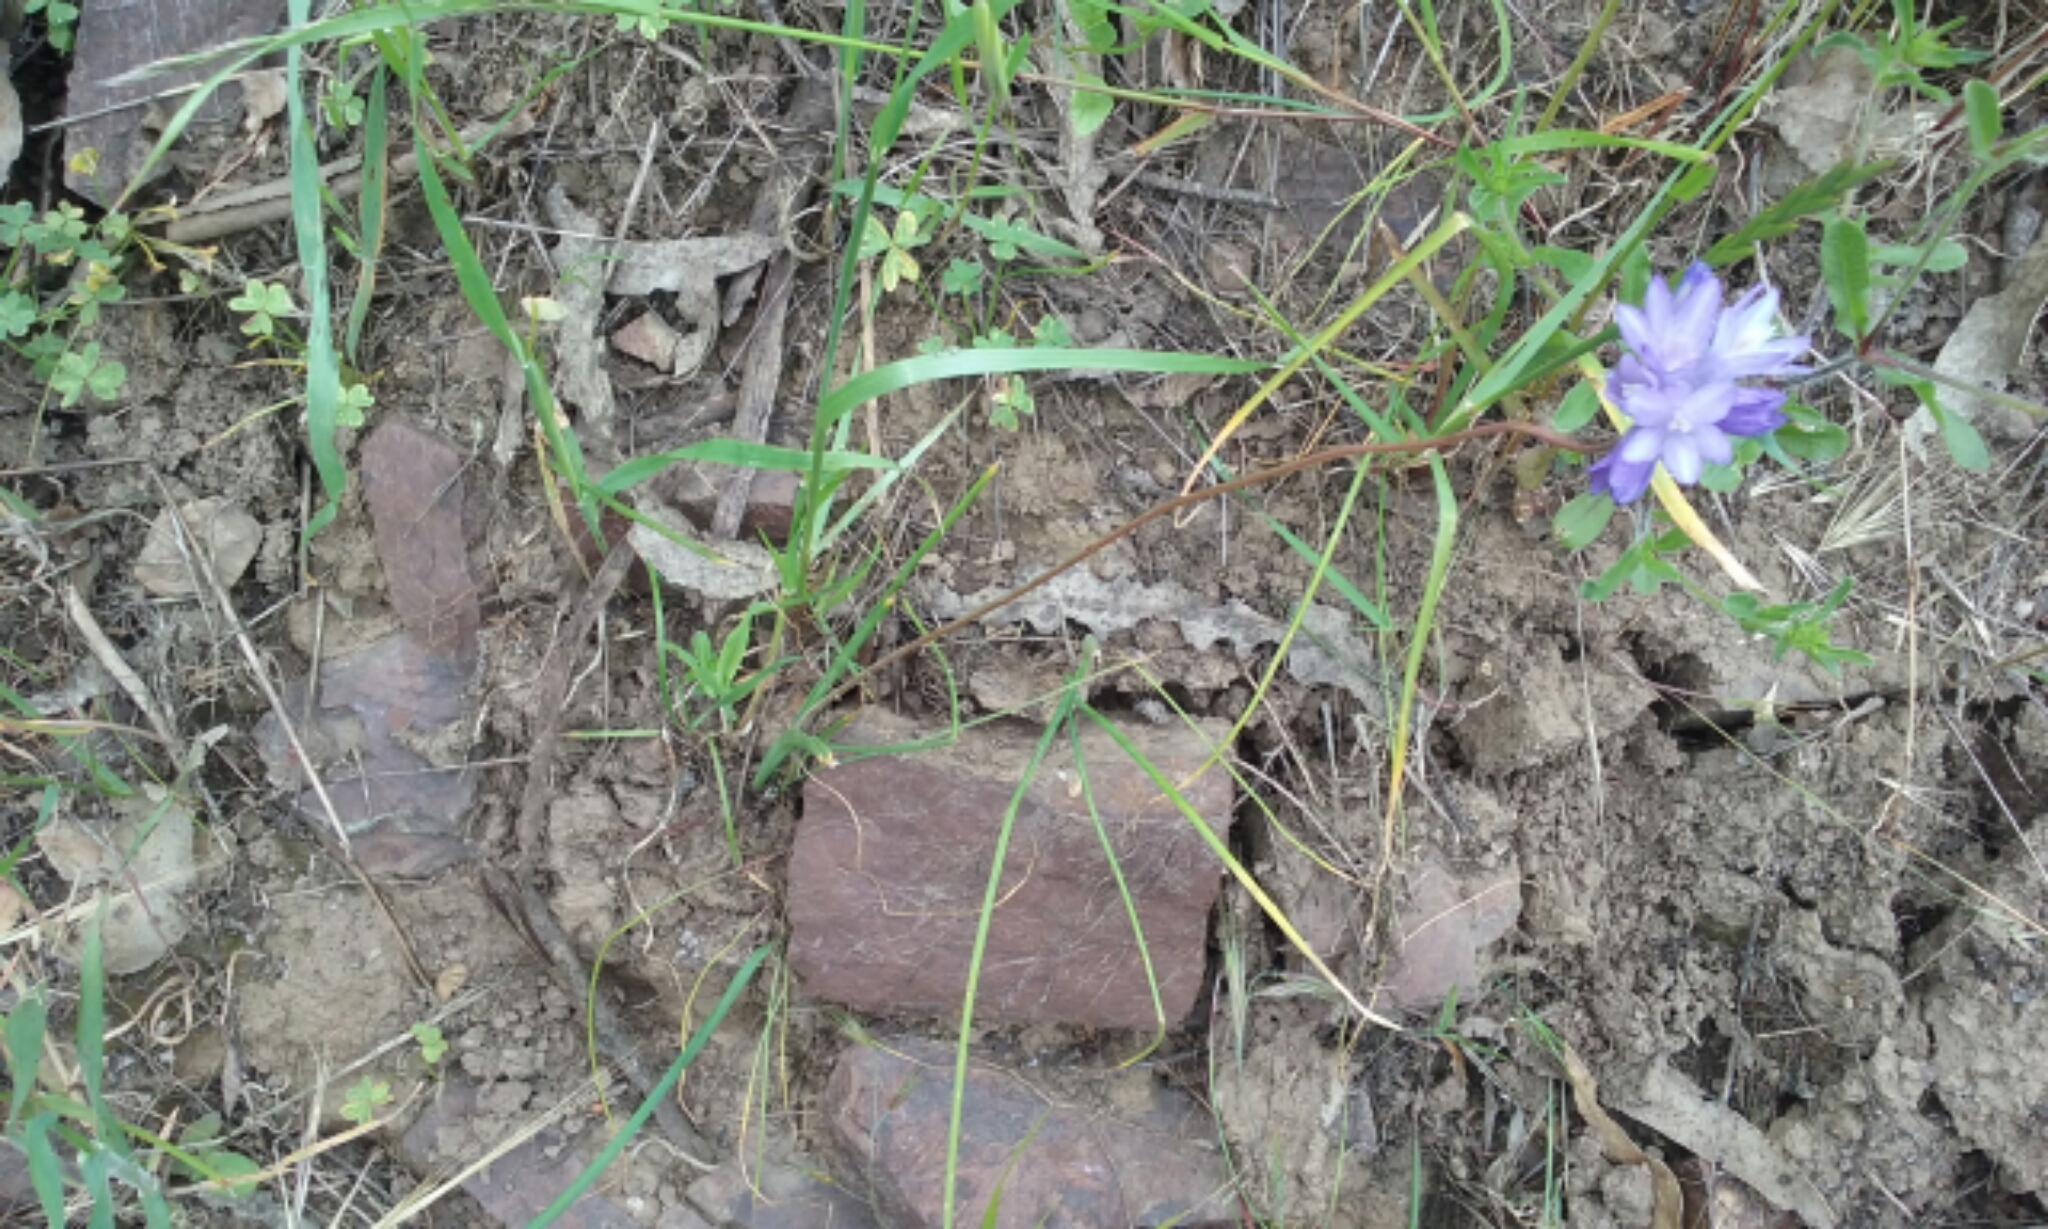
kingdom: Plantae
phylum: Tracheophyta
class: Liliopsida
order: Asparagales
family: Asparagaceae
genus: Dipterostemon
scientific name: Dipterostemon capitatus
